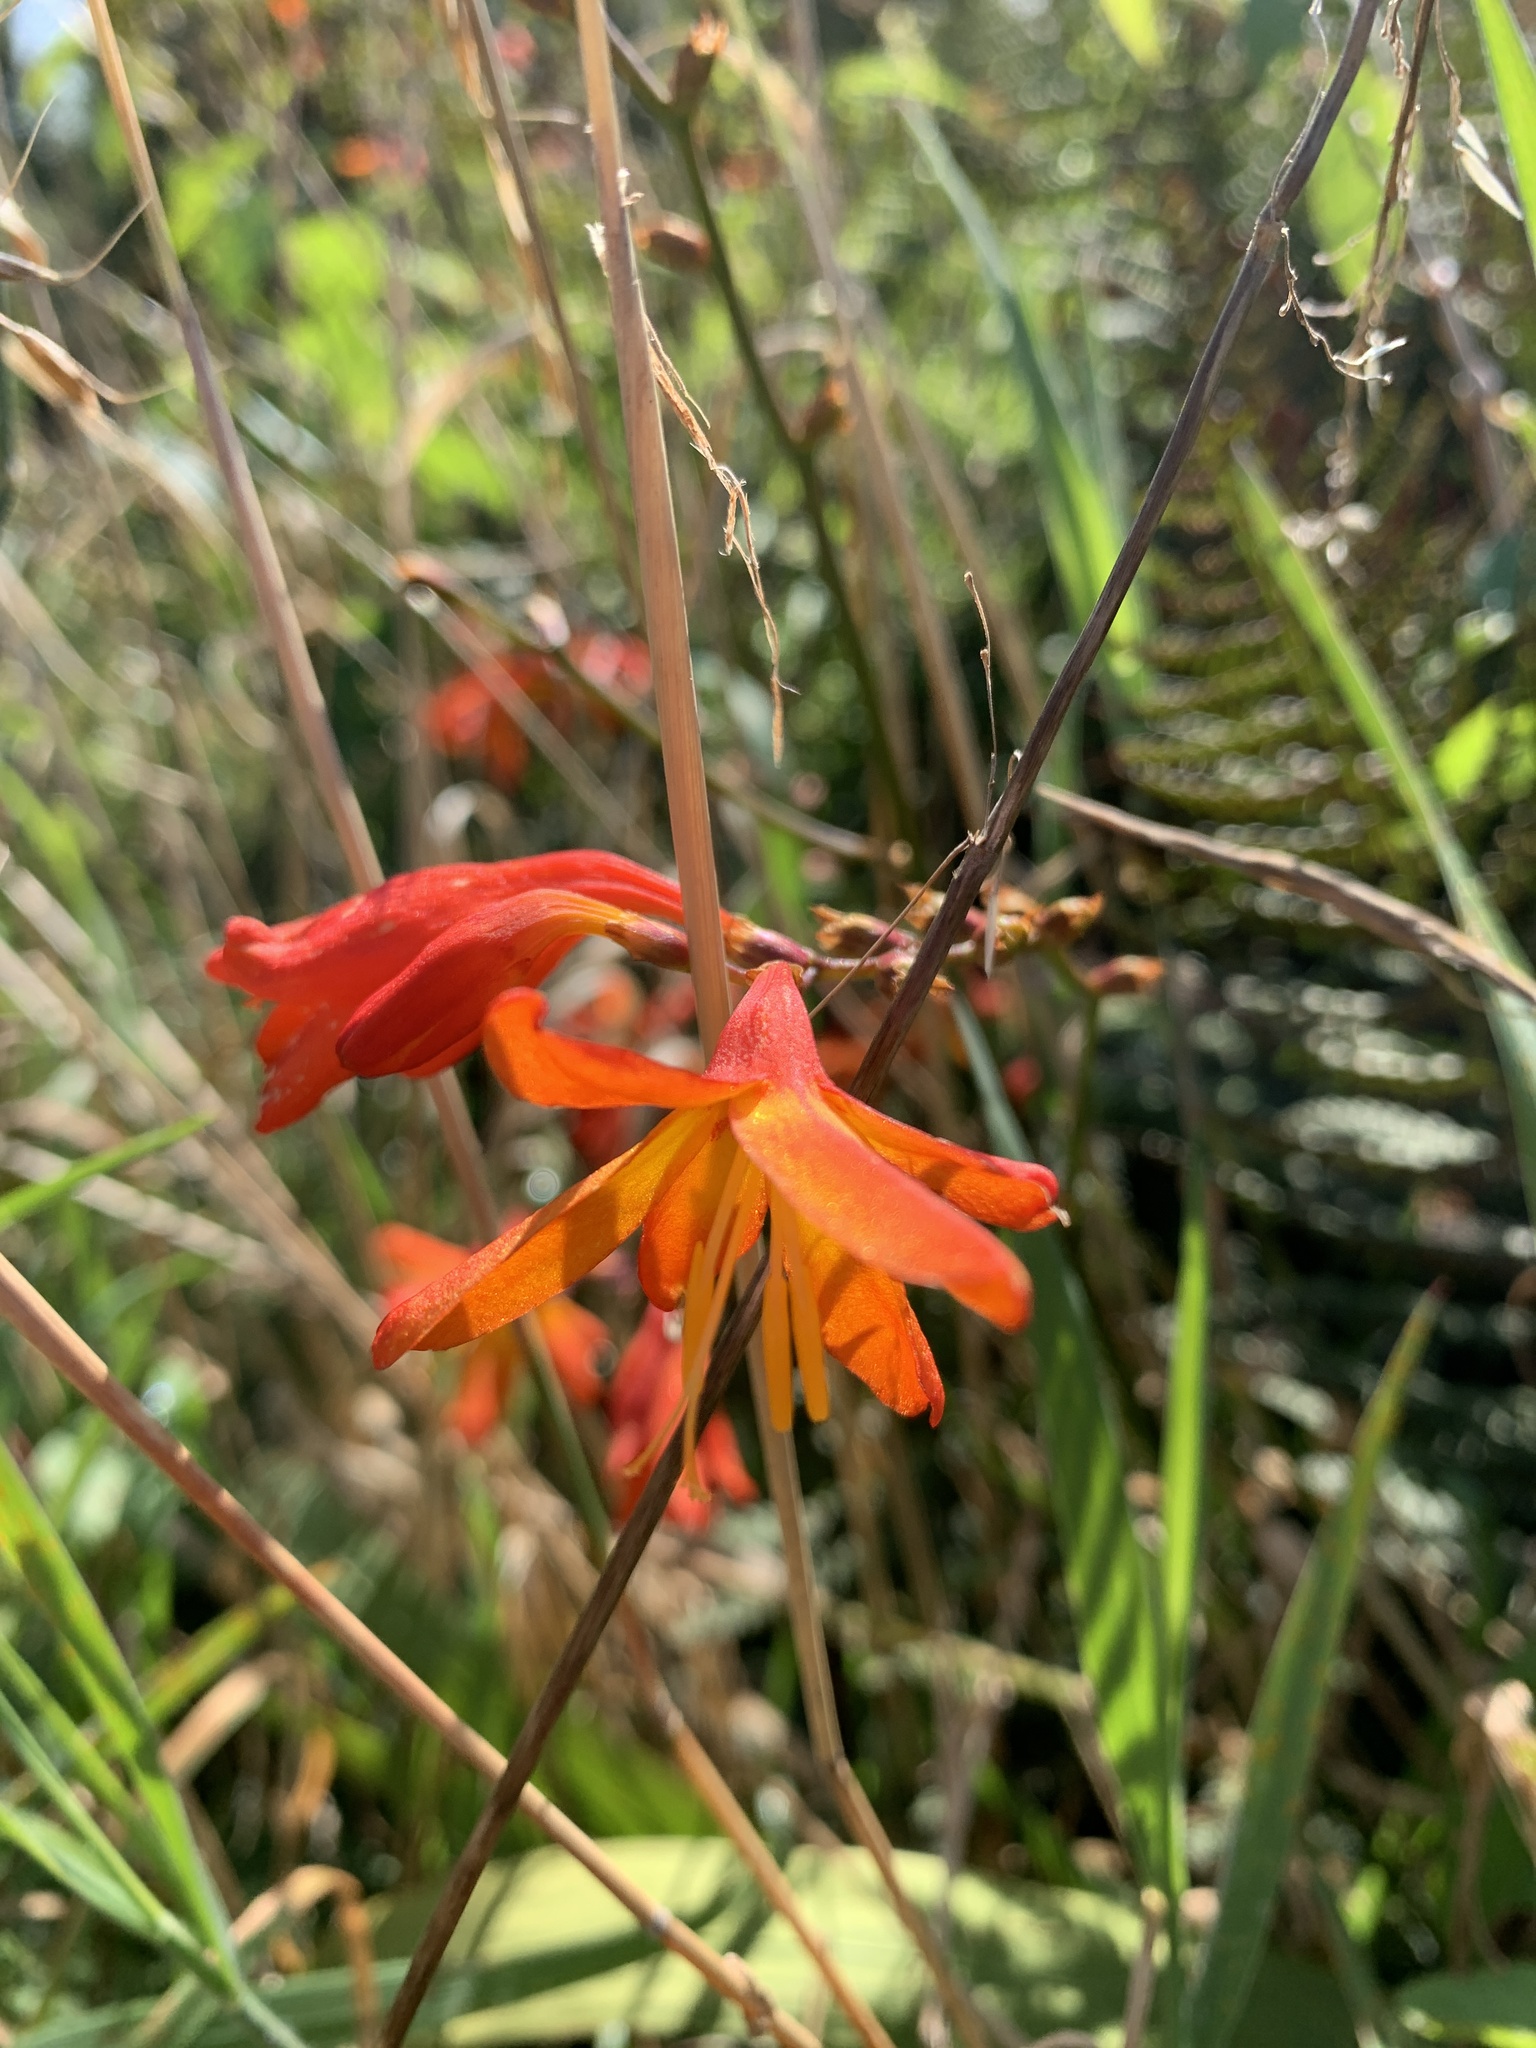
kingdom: Plantae
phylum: Tracheophyta
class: Liliopsida
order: Asparagales
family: Iridaceae
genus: Crocosmia
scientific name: Crocosmia crocosmiiflora
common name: Montbretia
